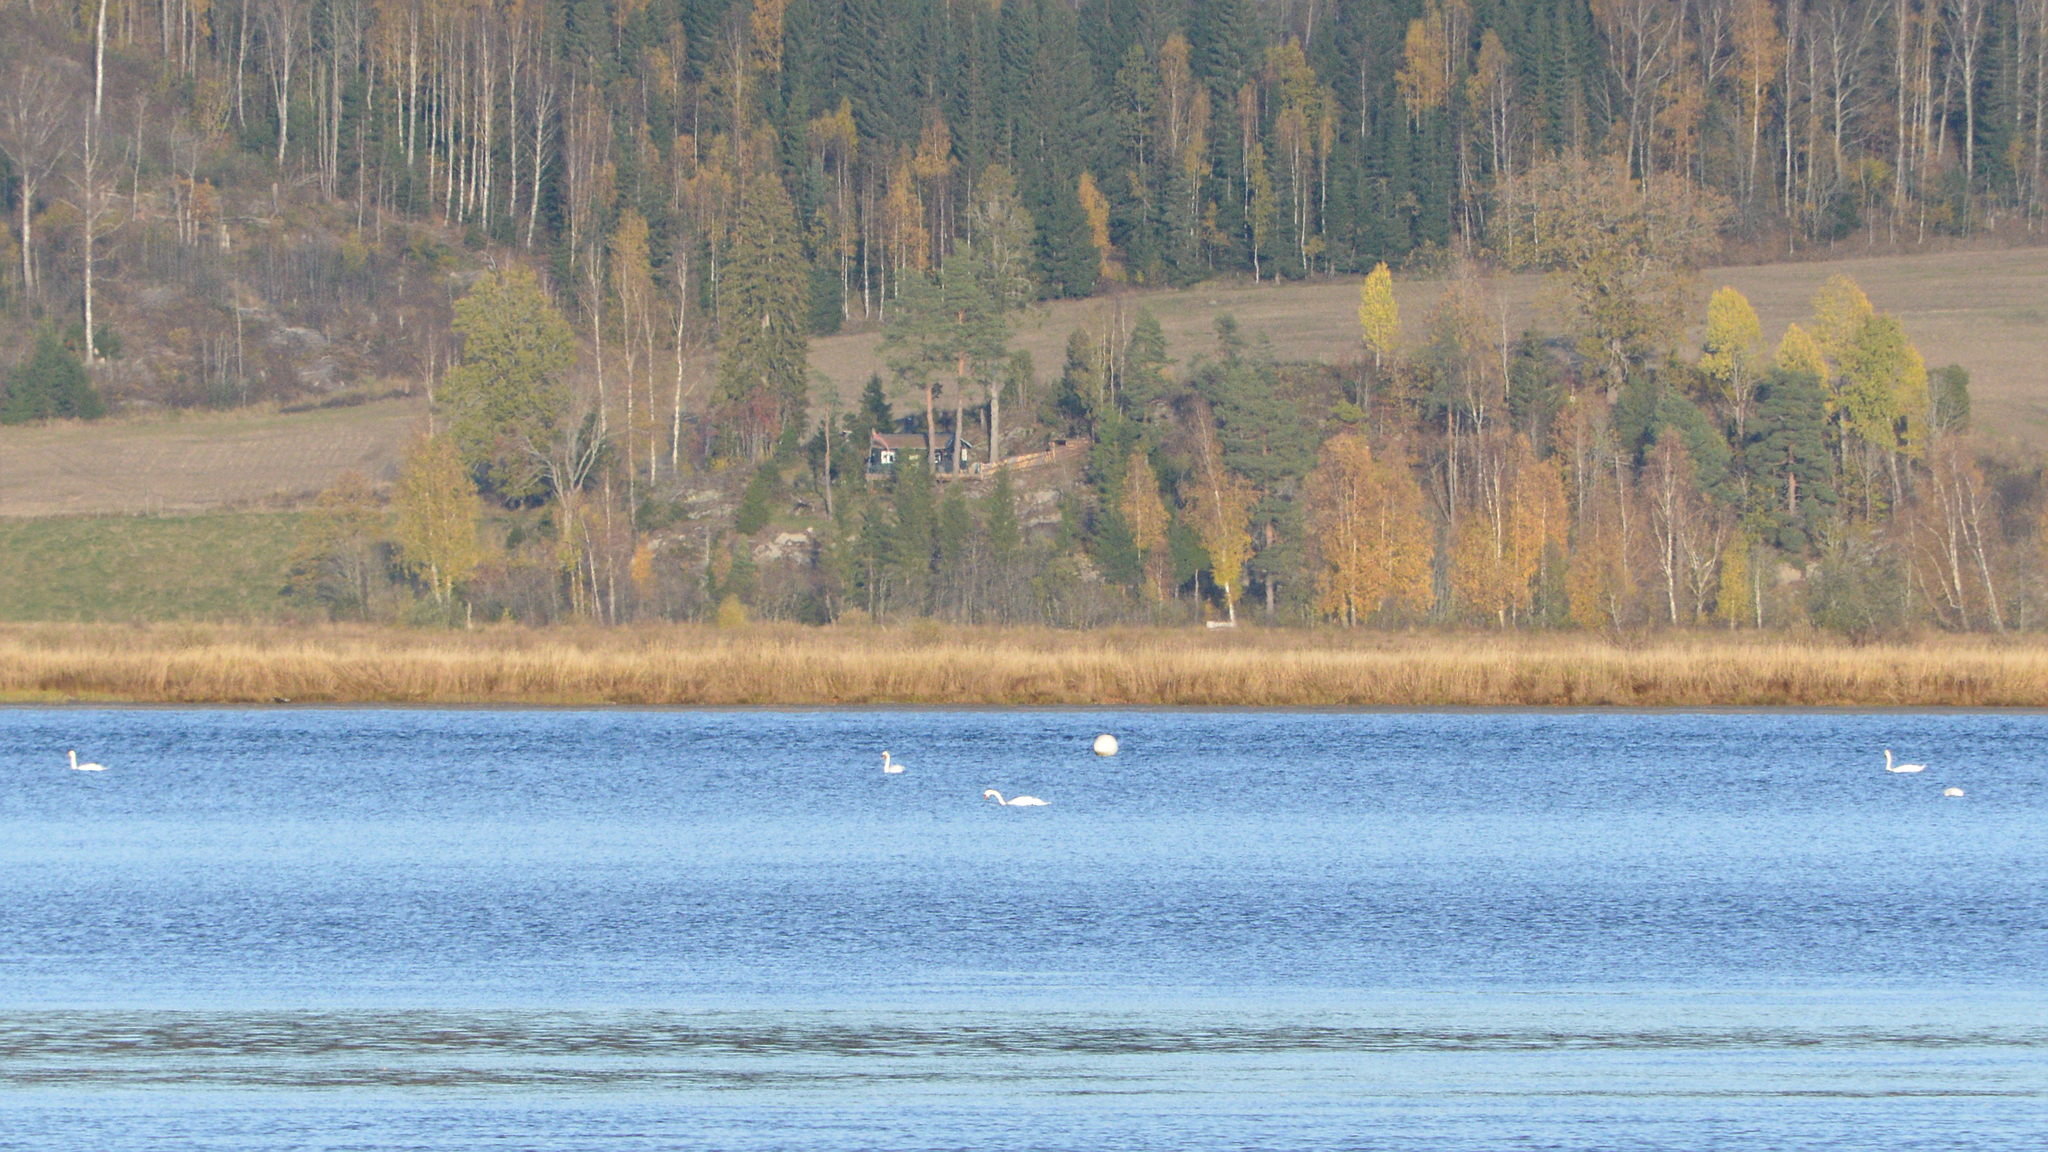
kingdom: Animalia
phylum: Chordata
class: Aves
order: Anseriformes
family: Anatidae
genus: Cygnus
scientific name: Cygnus olor
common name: Mute swan
